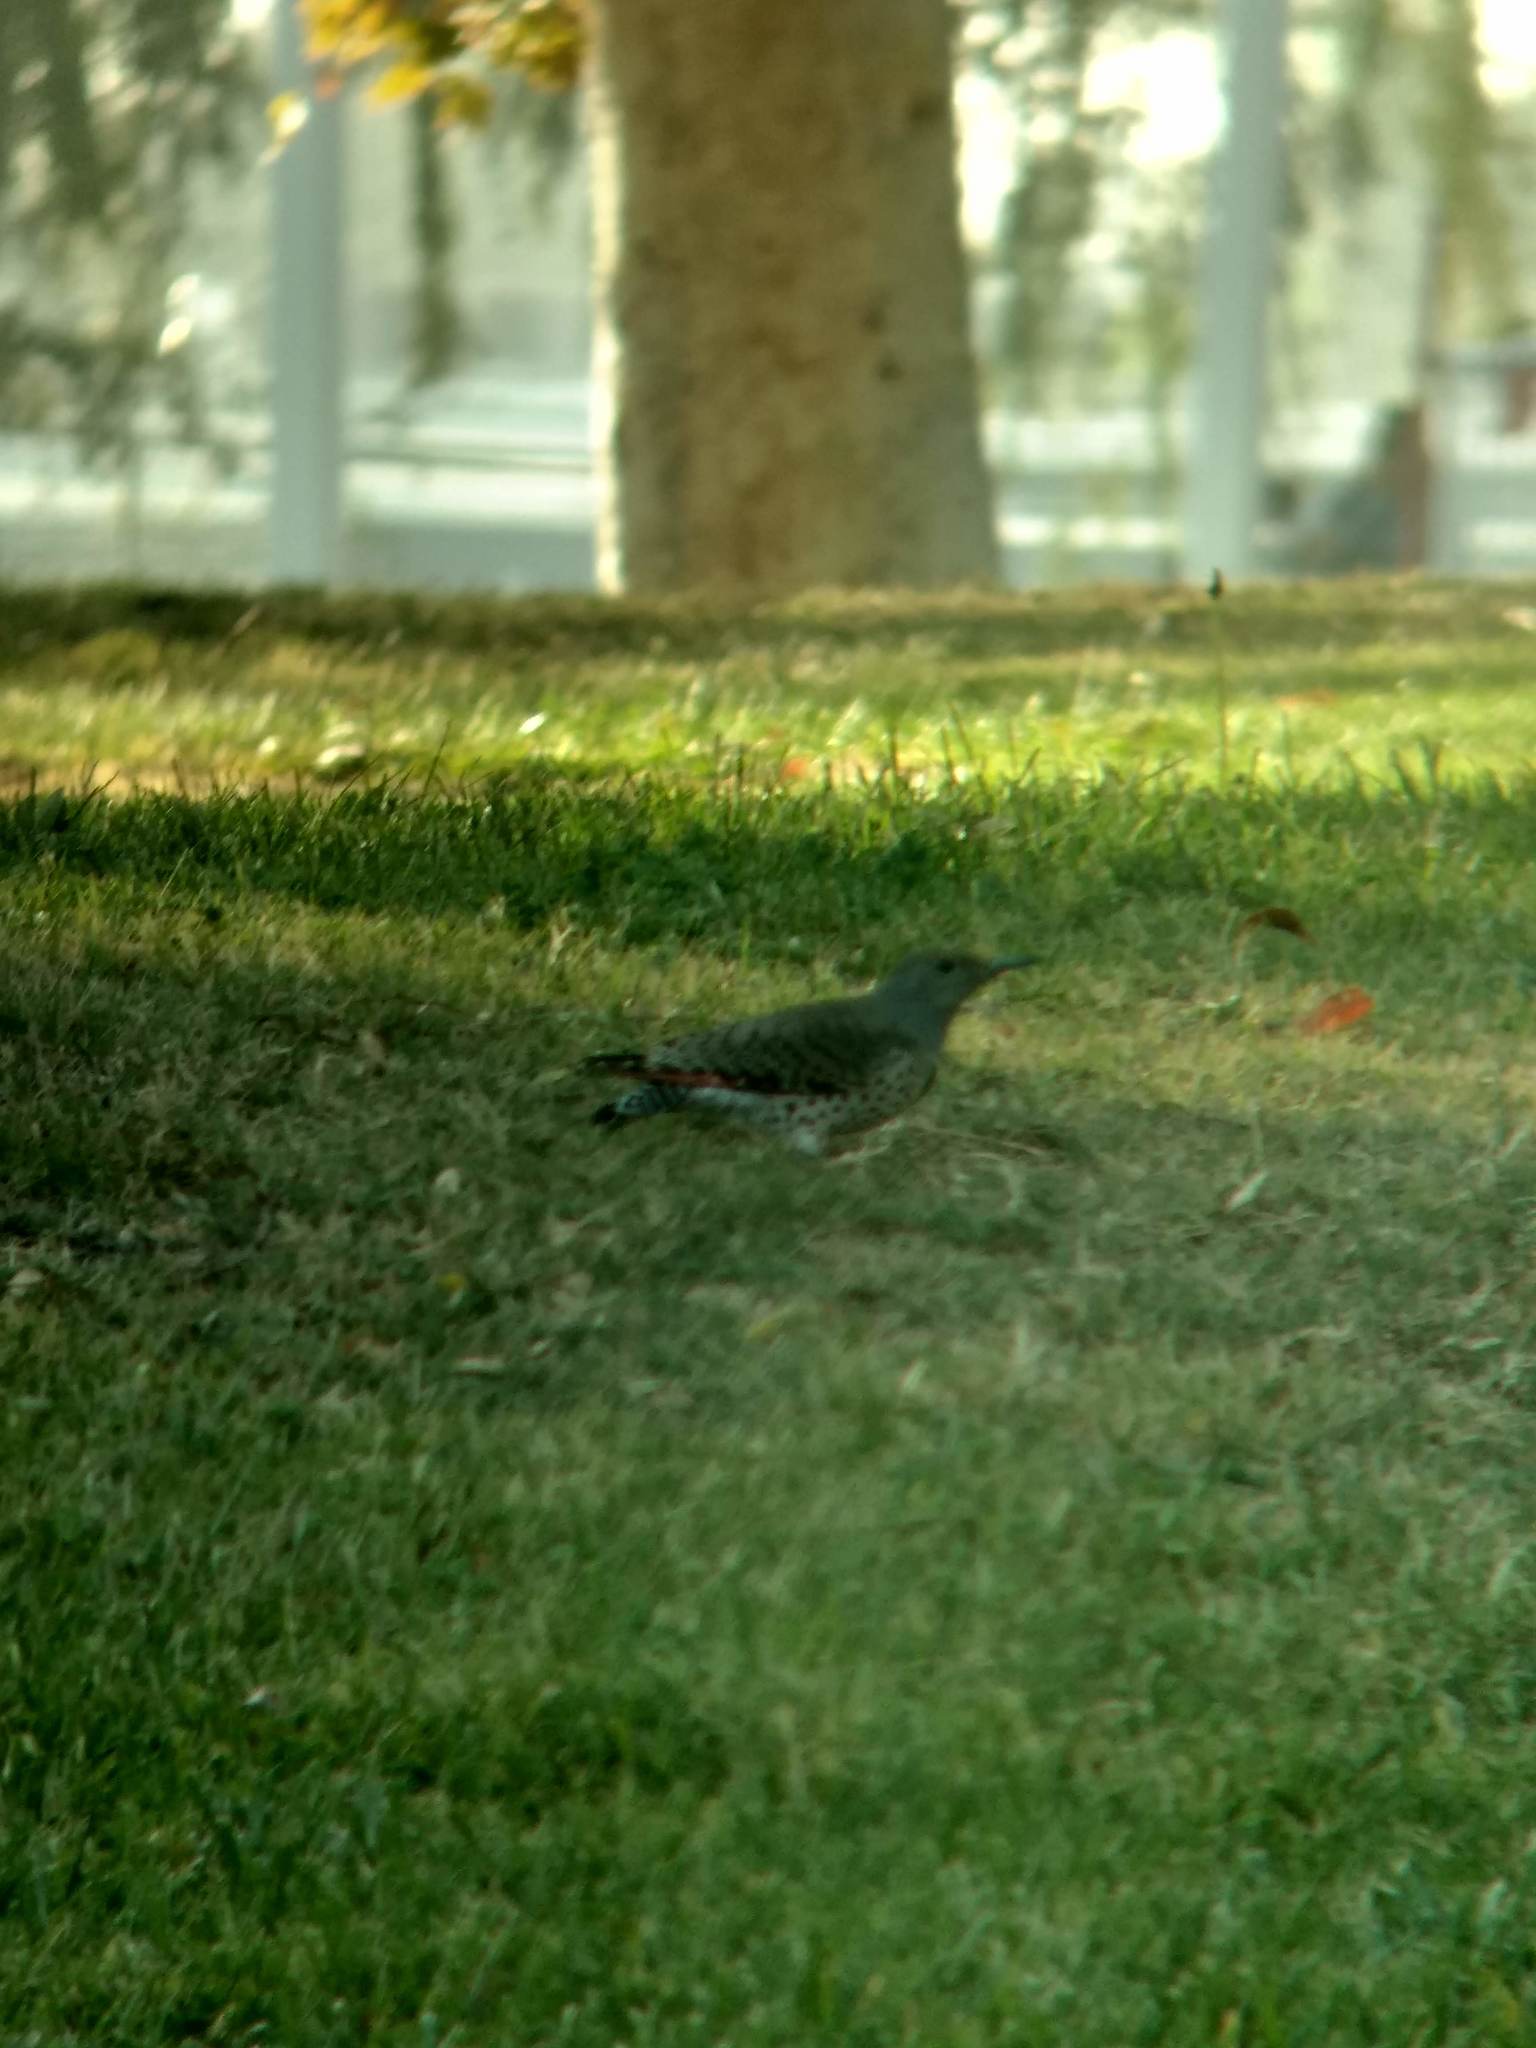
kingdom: Animalia
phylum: Chordata
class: Aves
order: Piciformes
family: Picidae
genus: Colaptes
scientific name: Colaptes auratus
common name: Northern flicker
